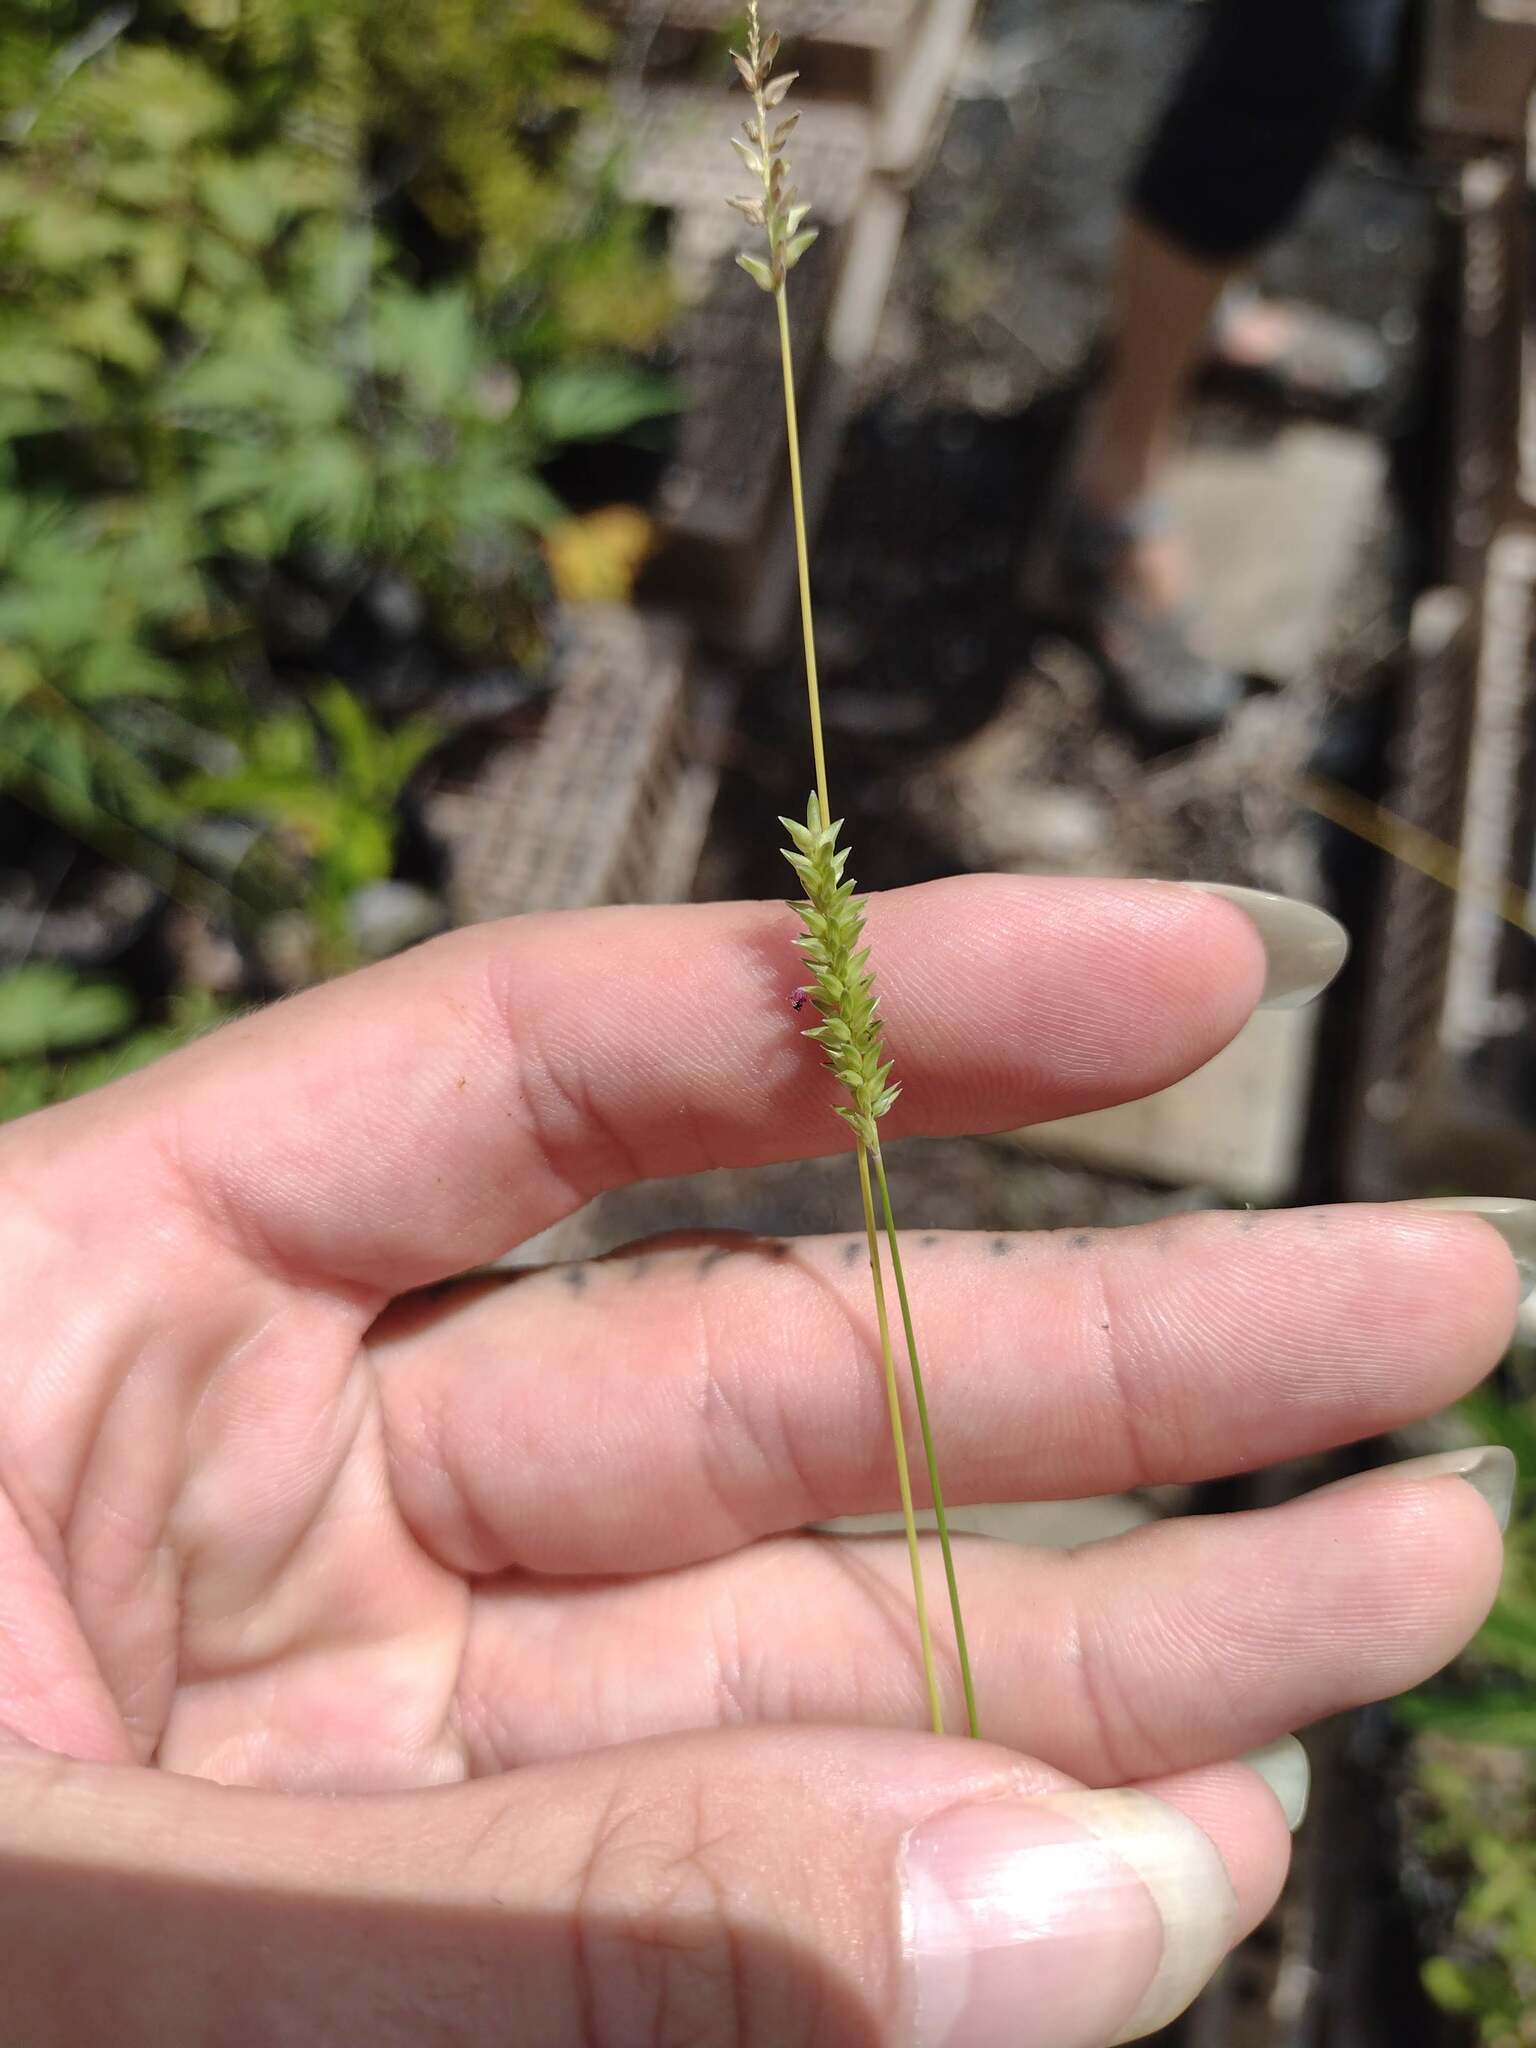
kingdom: Plantae
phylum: Tracheophyta
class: Liliopsida
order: Poales
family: Poaceae
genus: Sacciolepis
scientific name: Sacciolepis indica
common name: Glenwoodgrass
